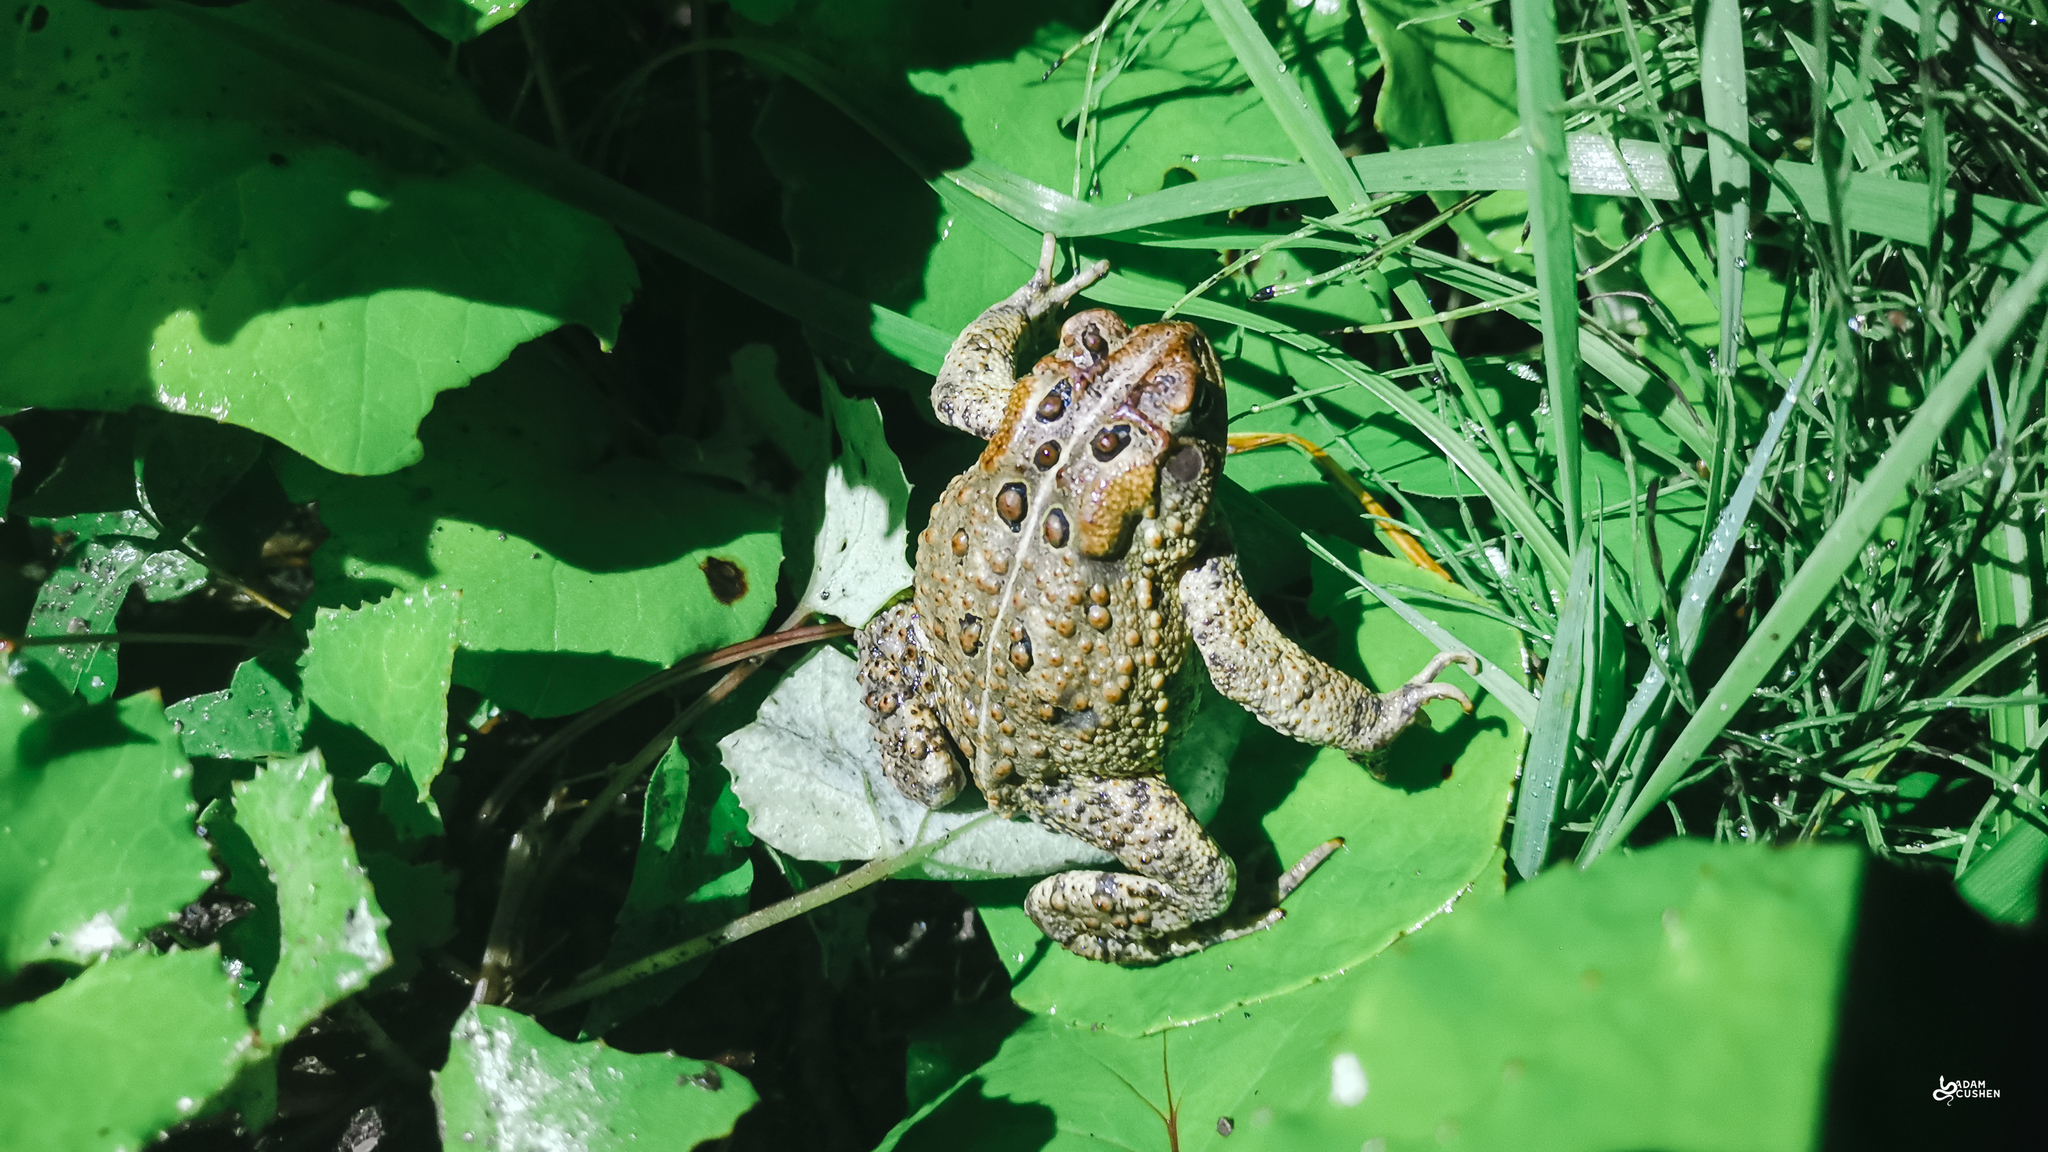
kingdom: Animalia
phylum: Chordata
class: Amphibia
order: Anura
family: Bufonidae
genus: Anaxyrus
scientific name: Anaxyrus americanus
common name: American toad
